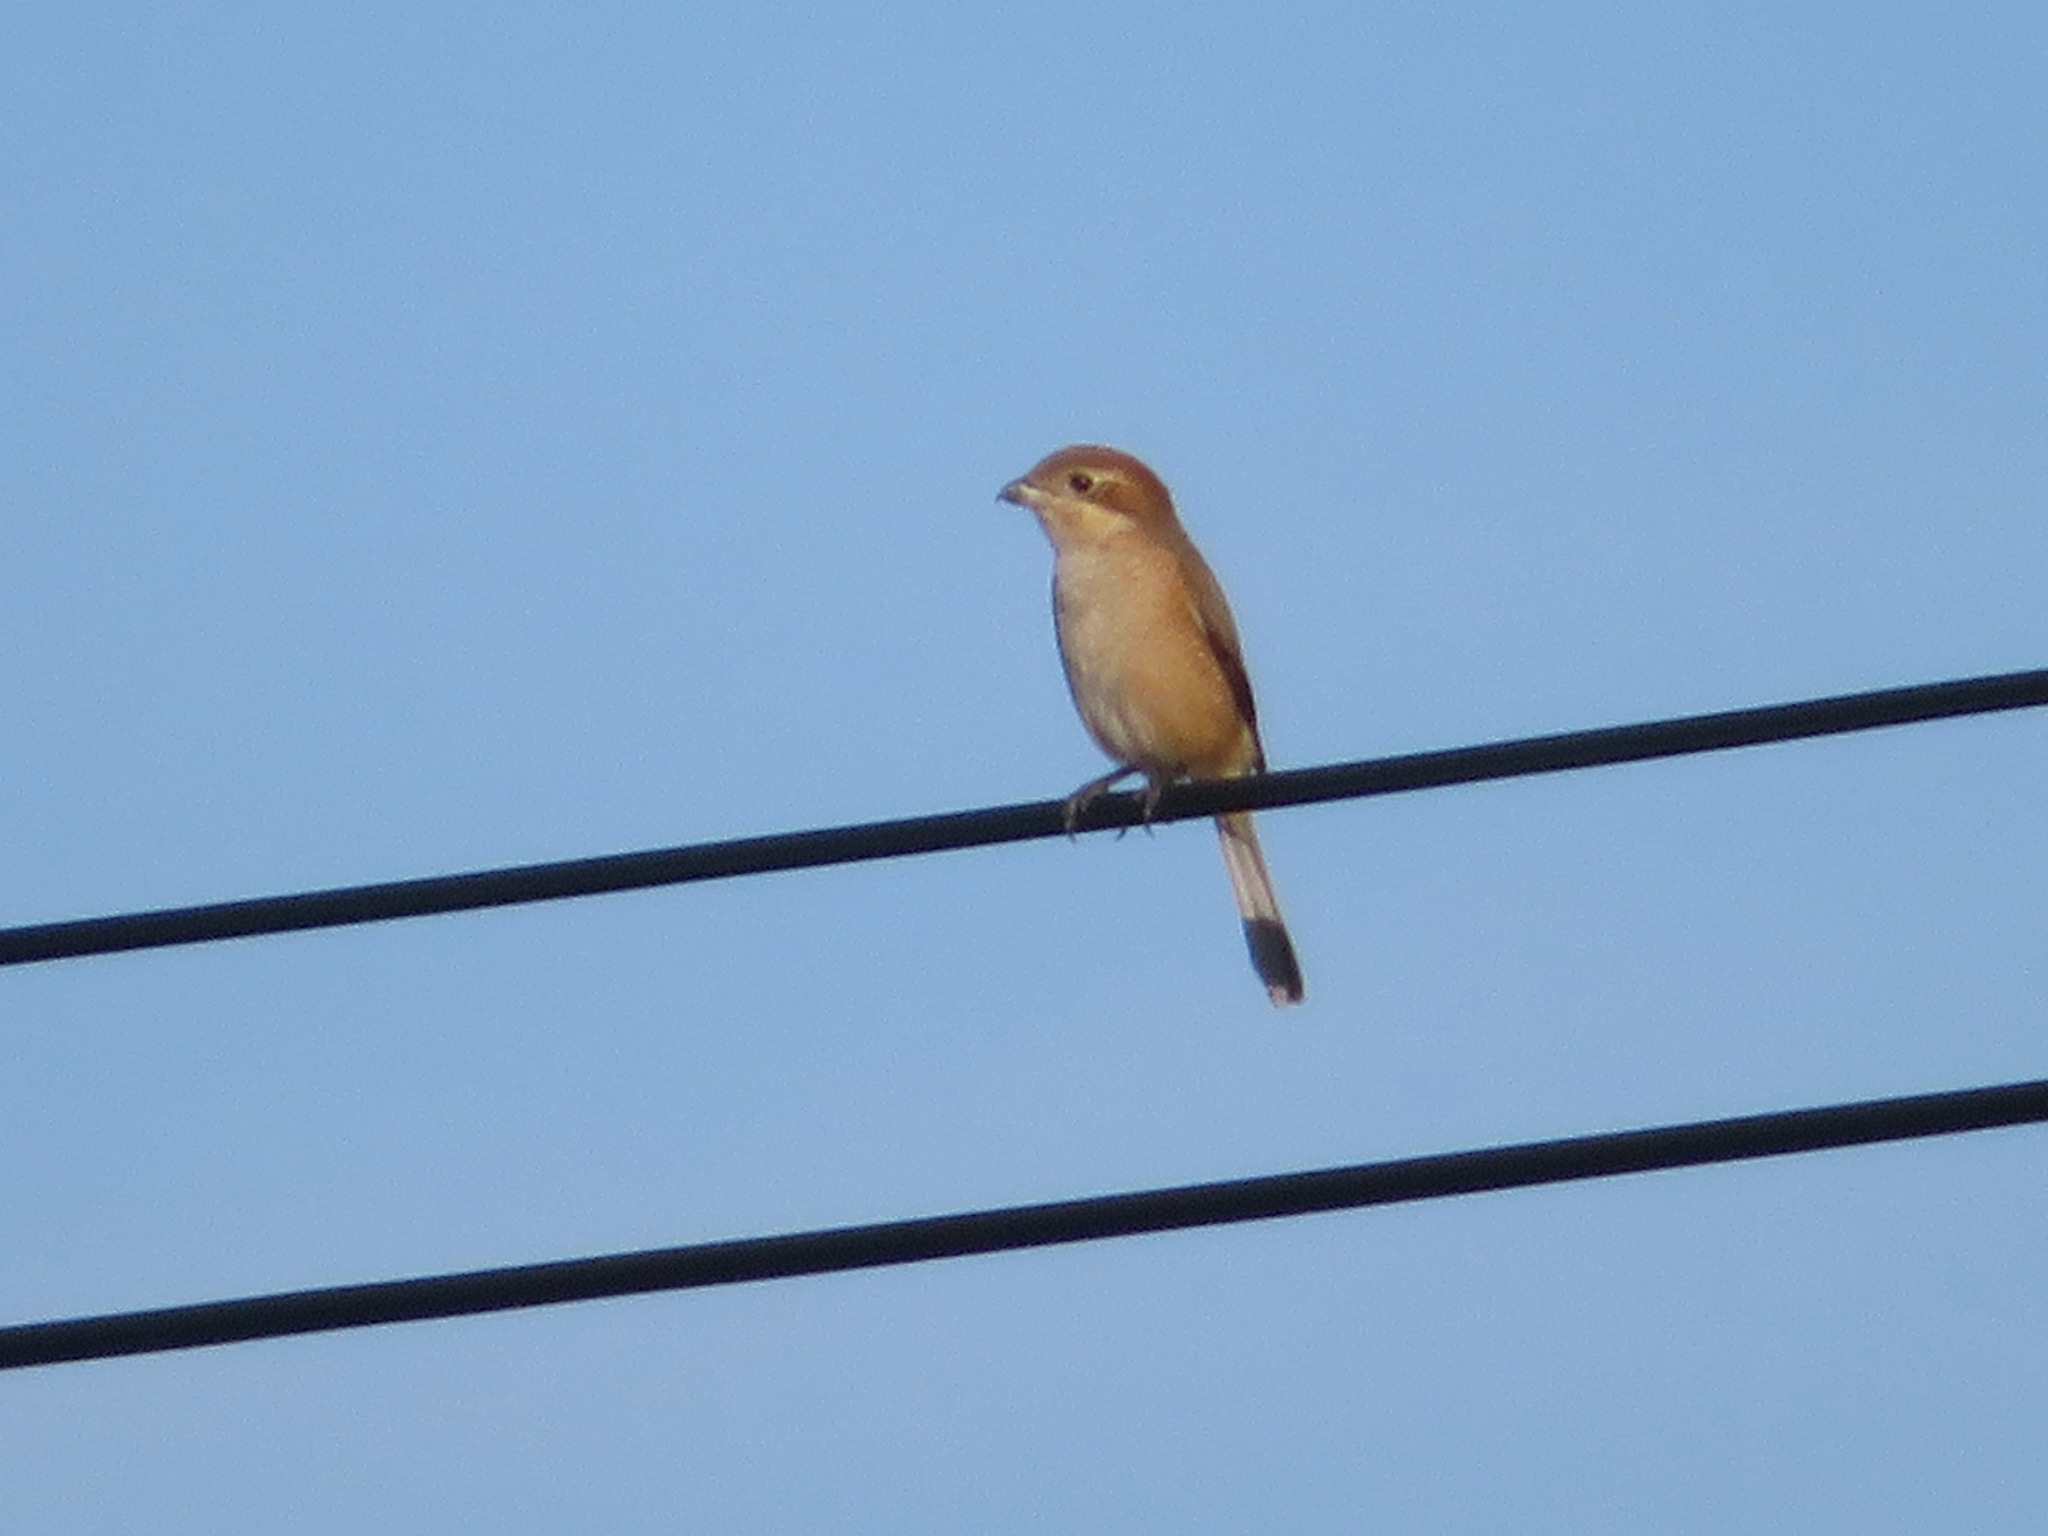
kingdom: Animalia
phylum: Chordata
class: Aves
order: Passeriformes
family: Laniidae
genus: Lanius
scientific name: Lanius bucephalus
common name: Bull-headed shrike
